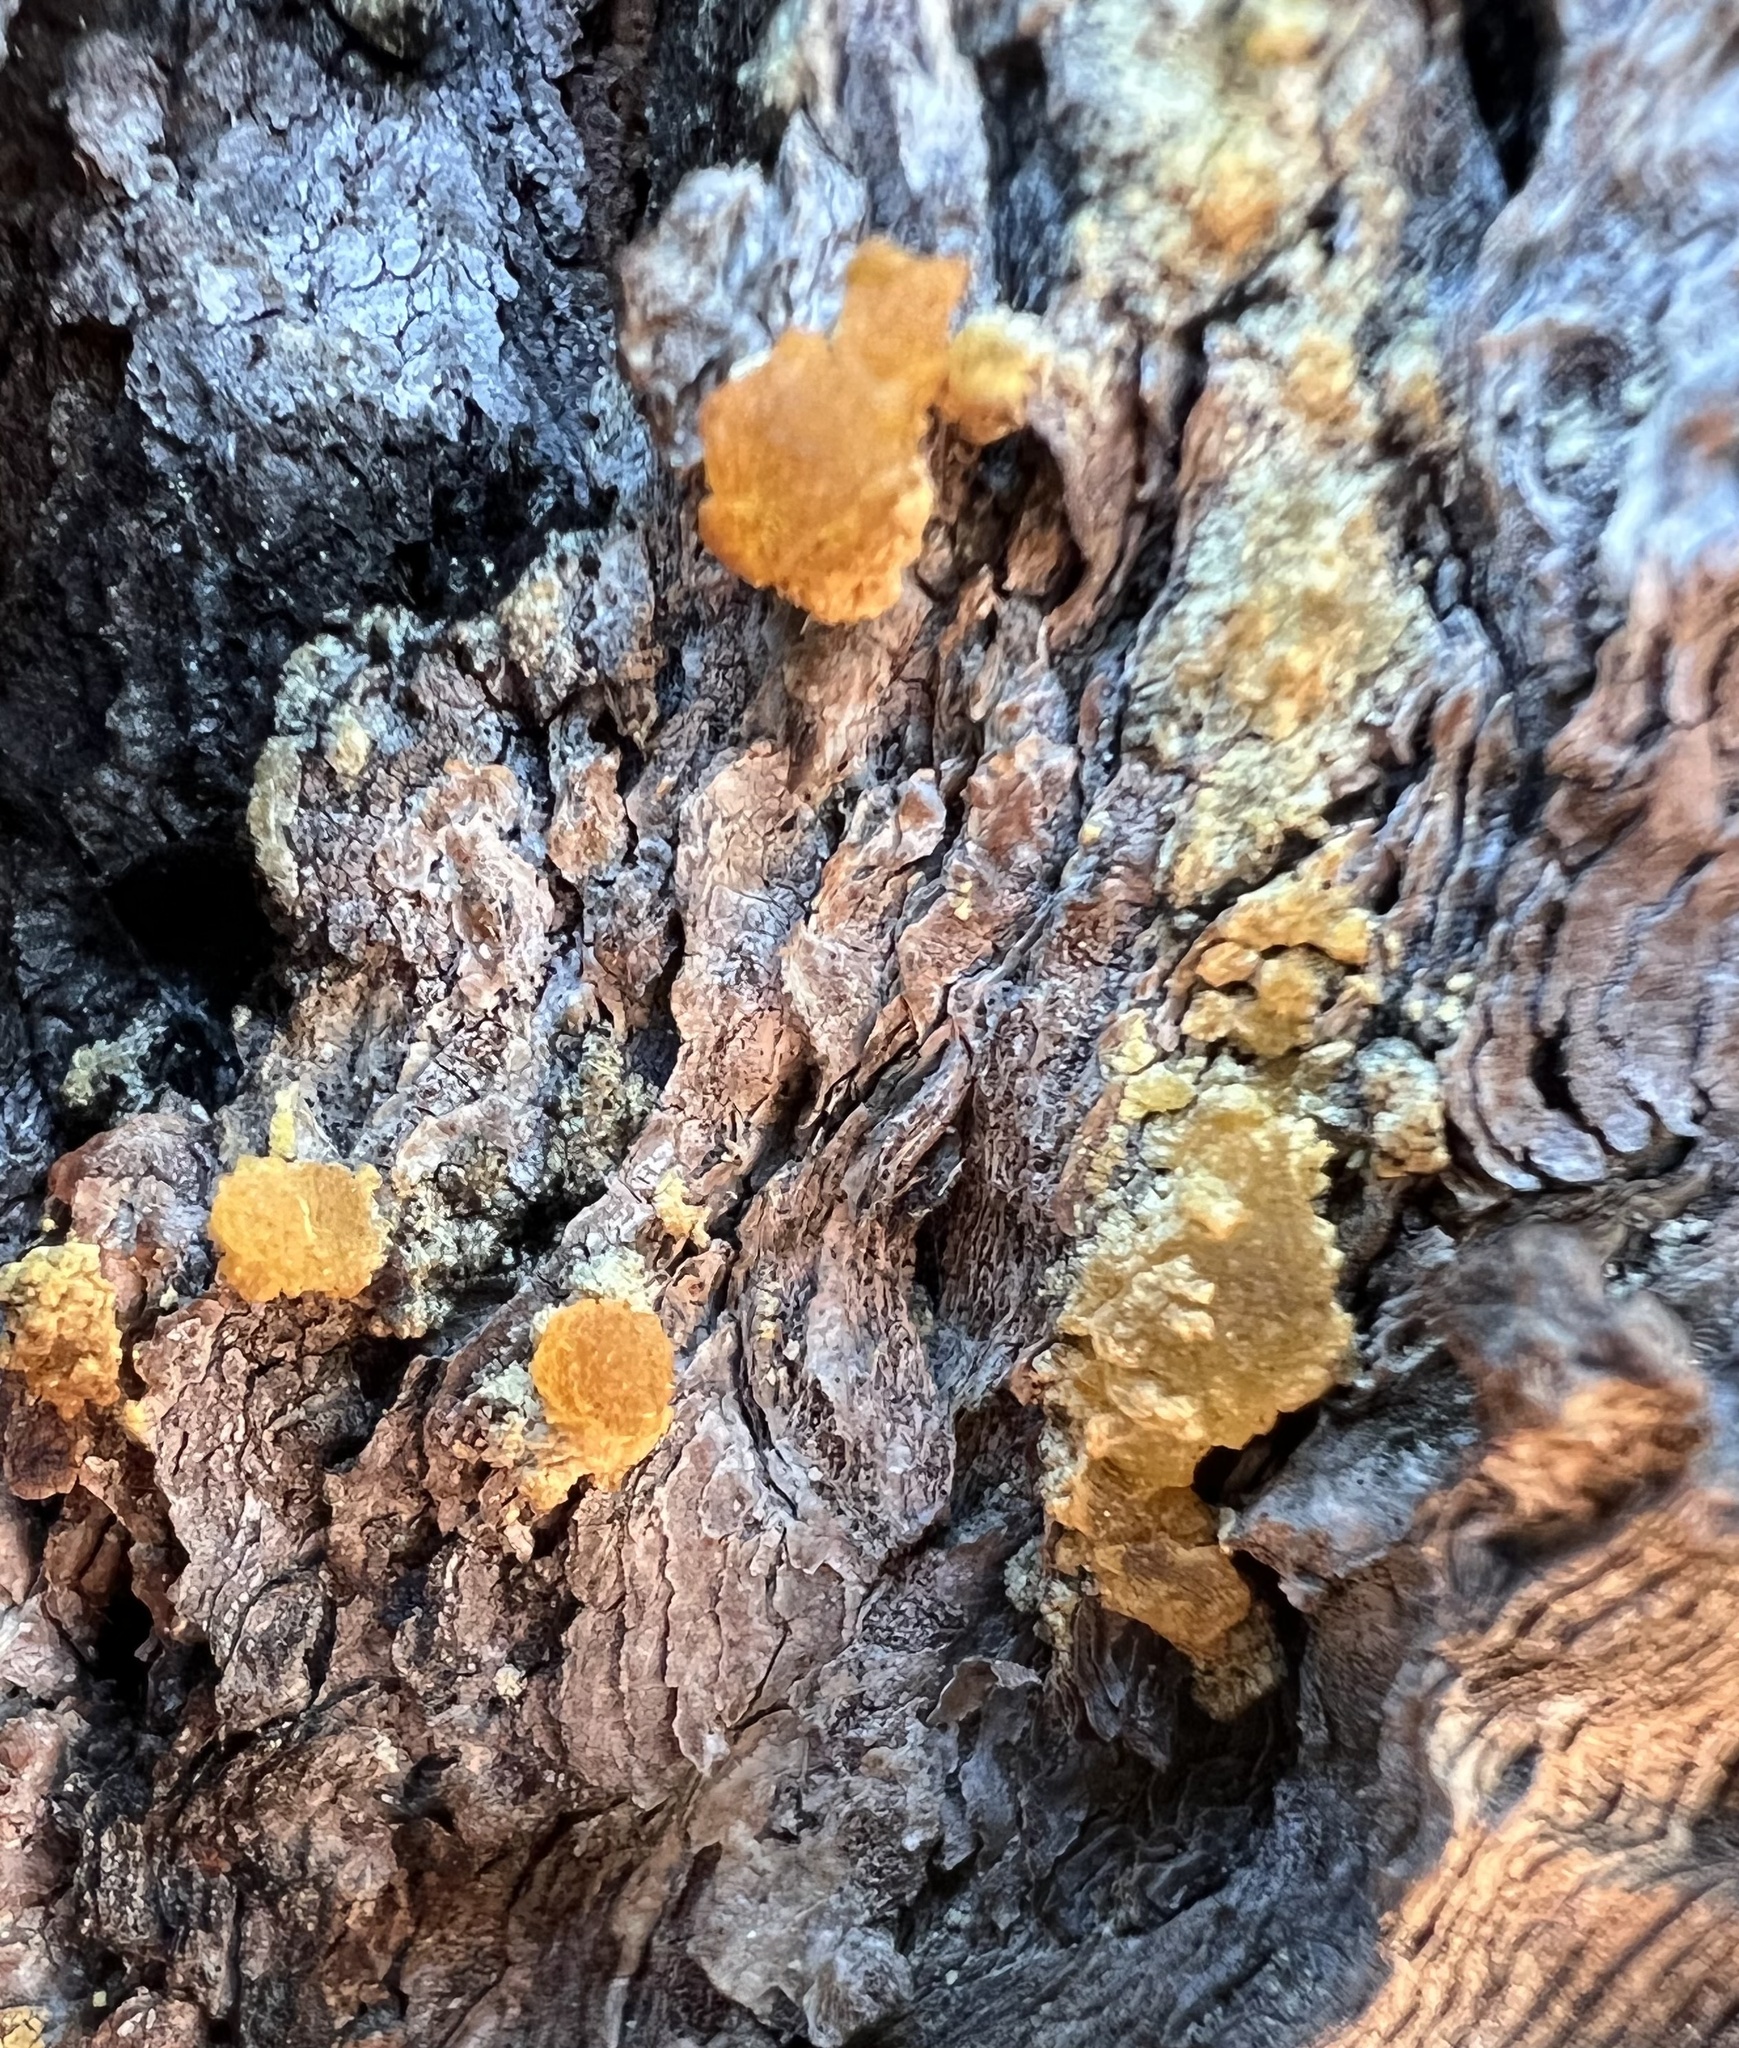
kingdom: Plantae
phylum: Tracheophyta
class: Pinopsida
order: Pinales
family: Pinaceae
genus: Pseudotsuga
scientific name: Pseudotsuga menziesii
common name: Douglas fir
